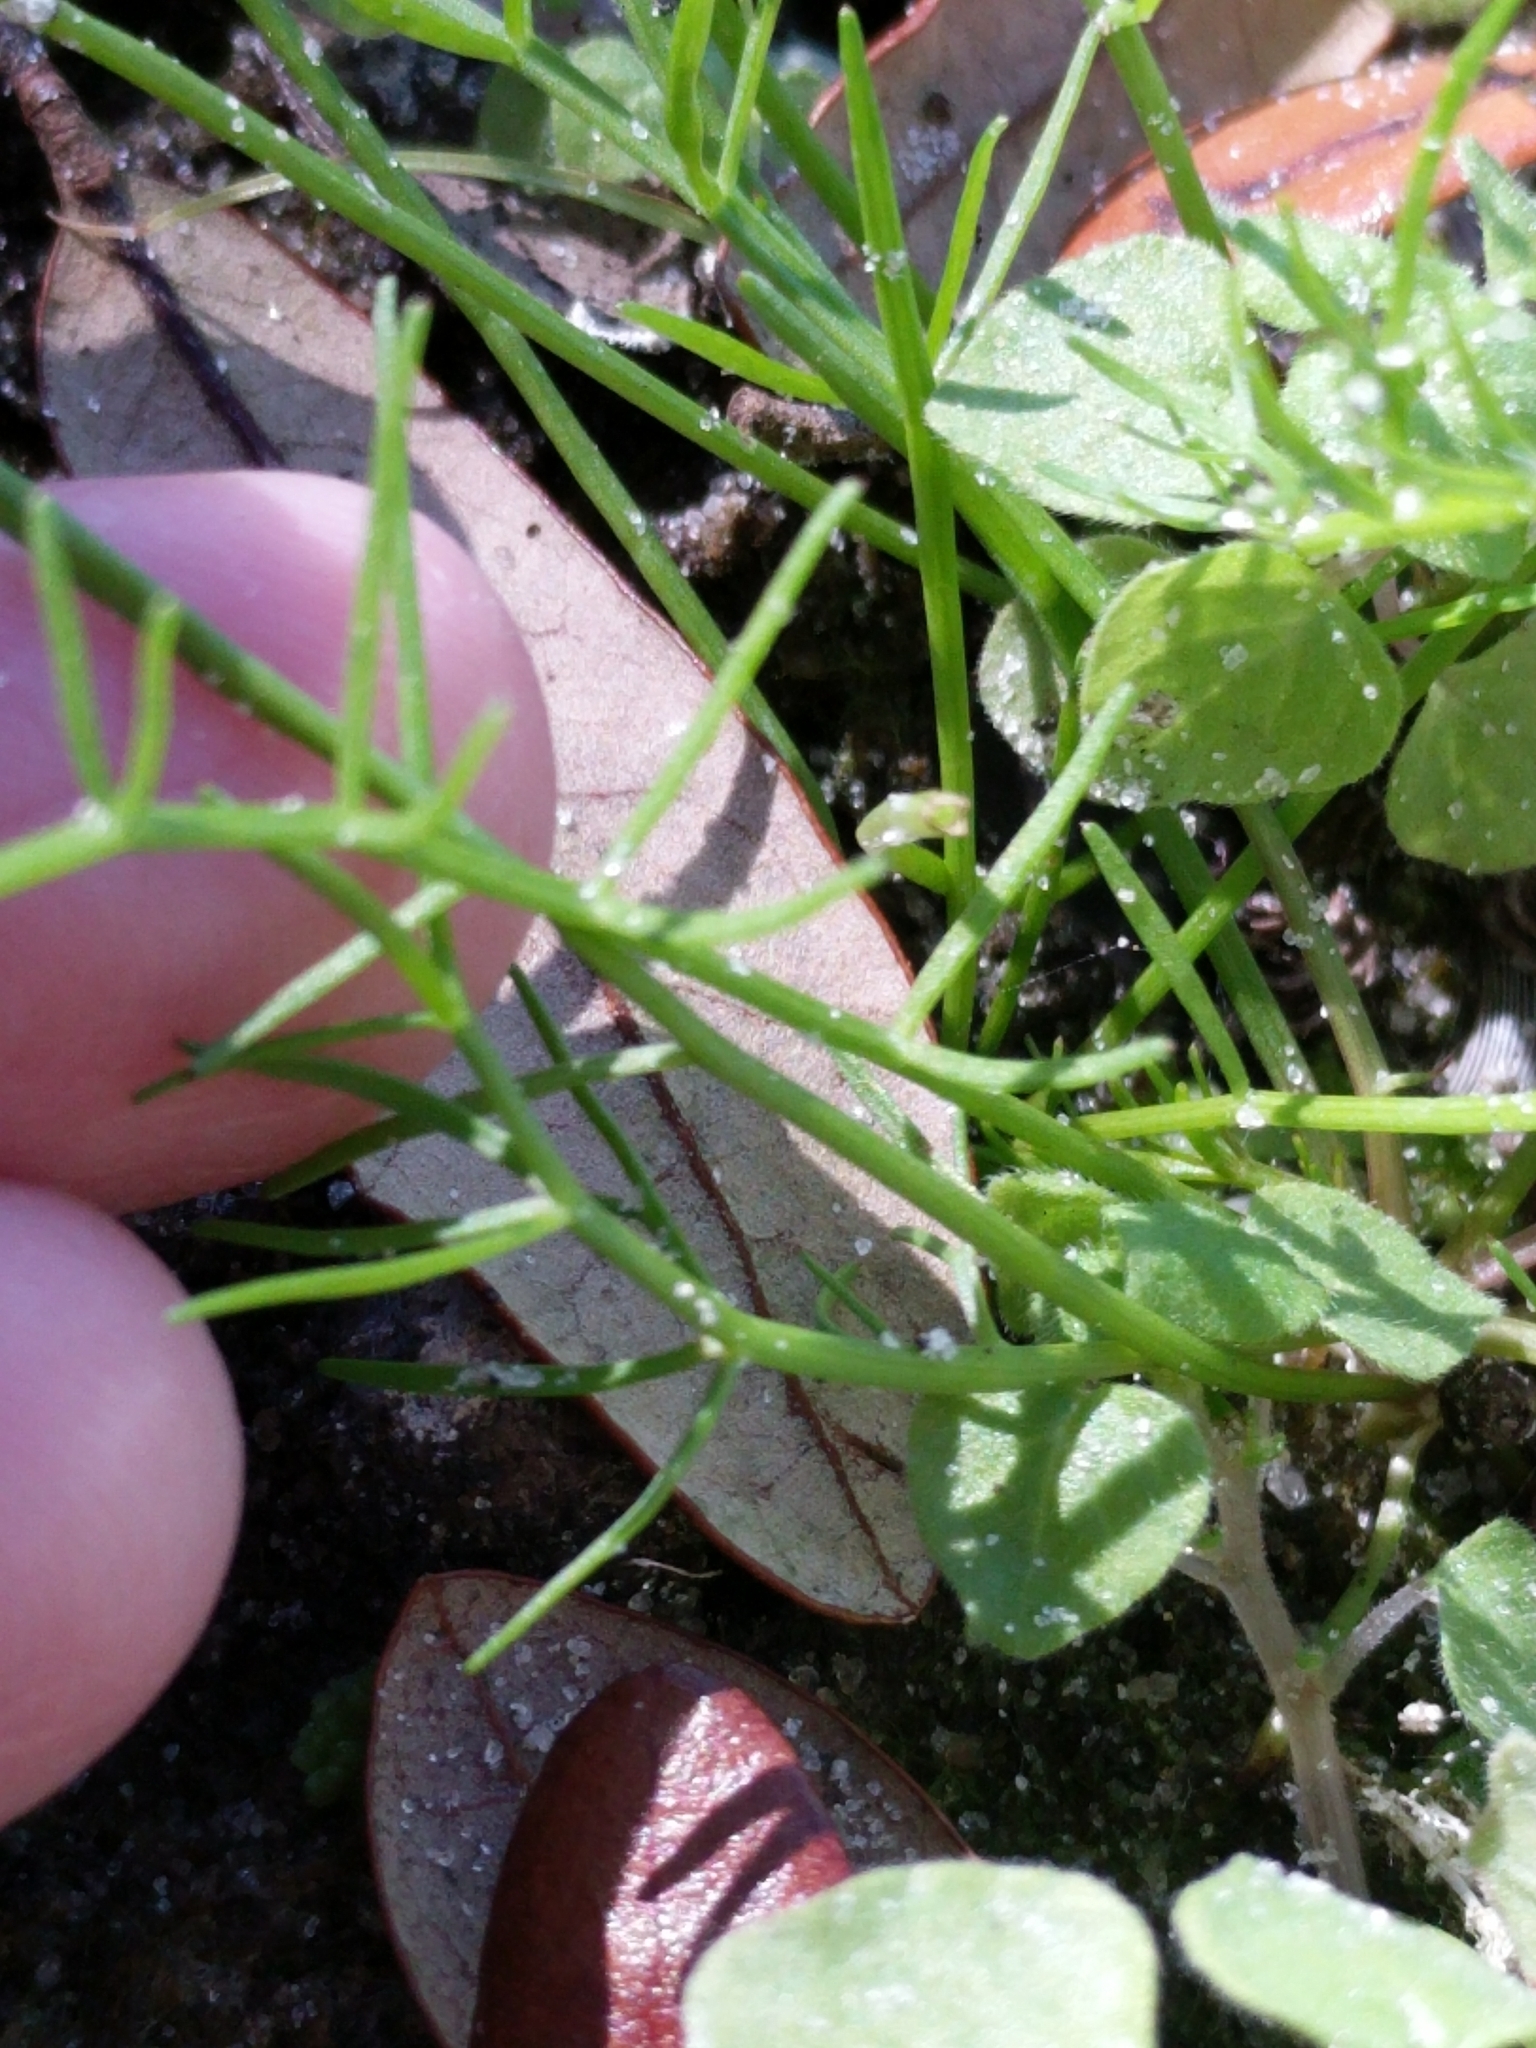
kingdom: Plantae
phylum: Tracheophyta
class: Magnoliopsida
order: Apiales
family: Apiaceae
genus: Ptilimnium
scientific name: Ptilimnium capillaceum
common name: Herbwilliam
